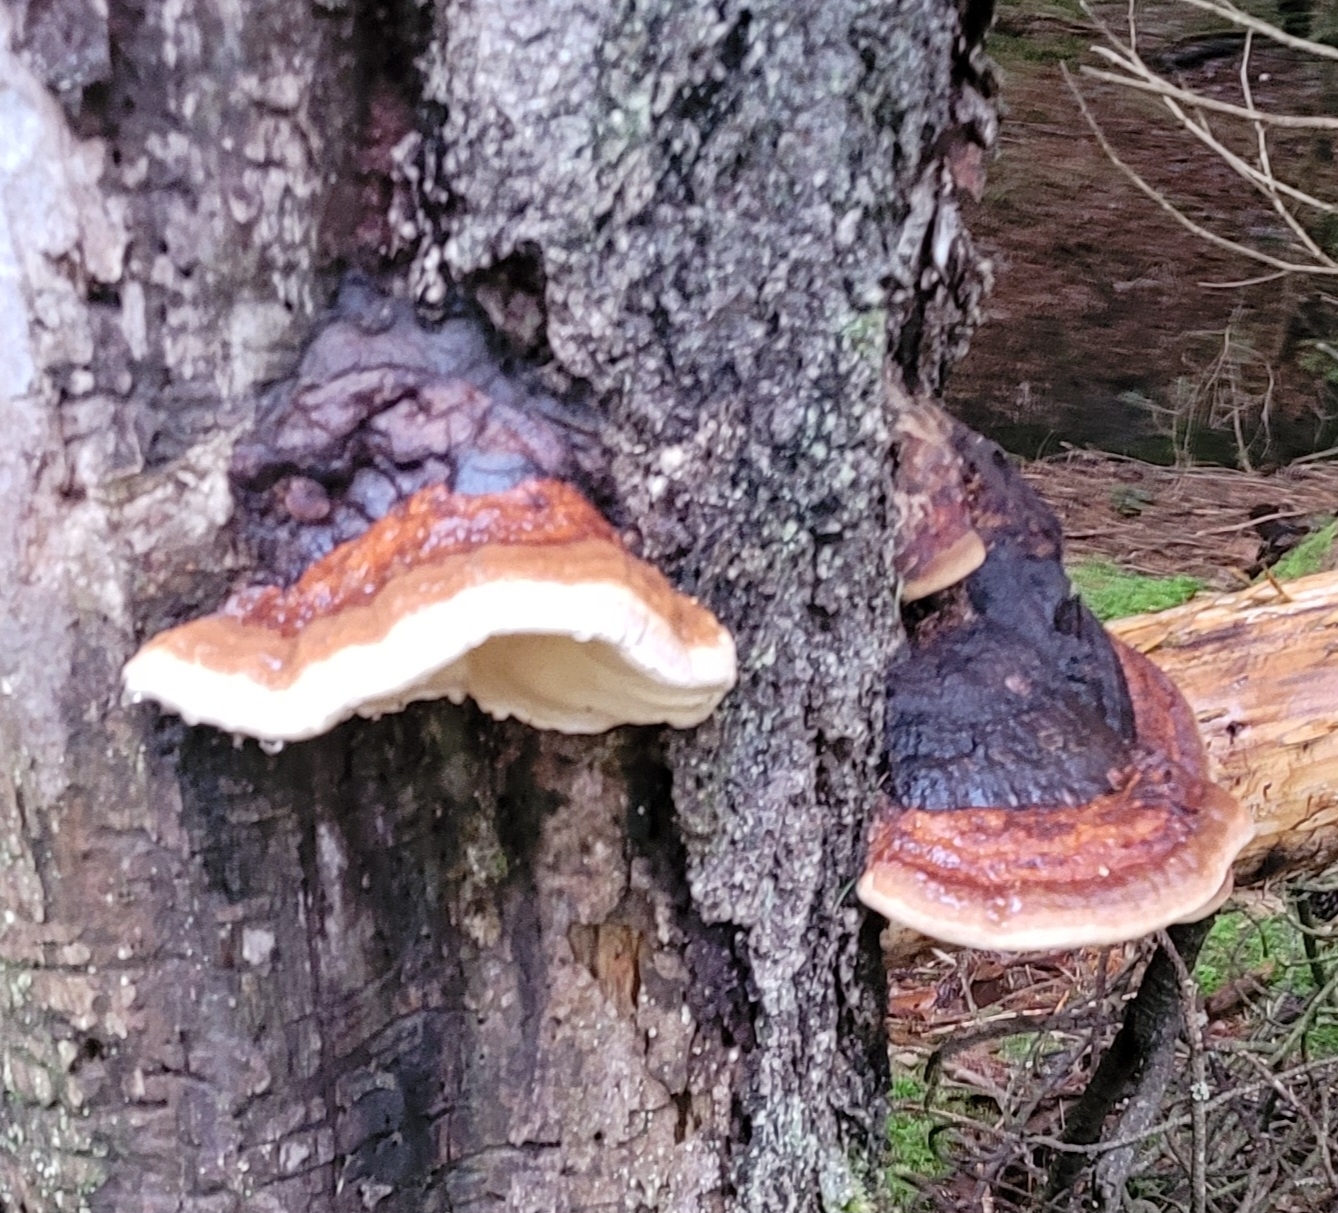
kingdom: Fungi
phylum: Basidiomycota
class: Agaricomycetes
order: Polyporales
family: Fomitopsidaceae
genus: Fomitopsis
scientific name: Fomitopsis pinicola
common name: Red-belted bracket
